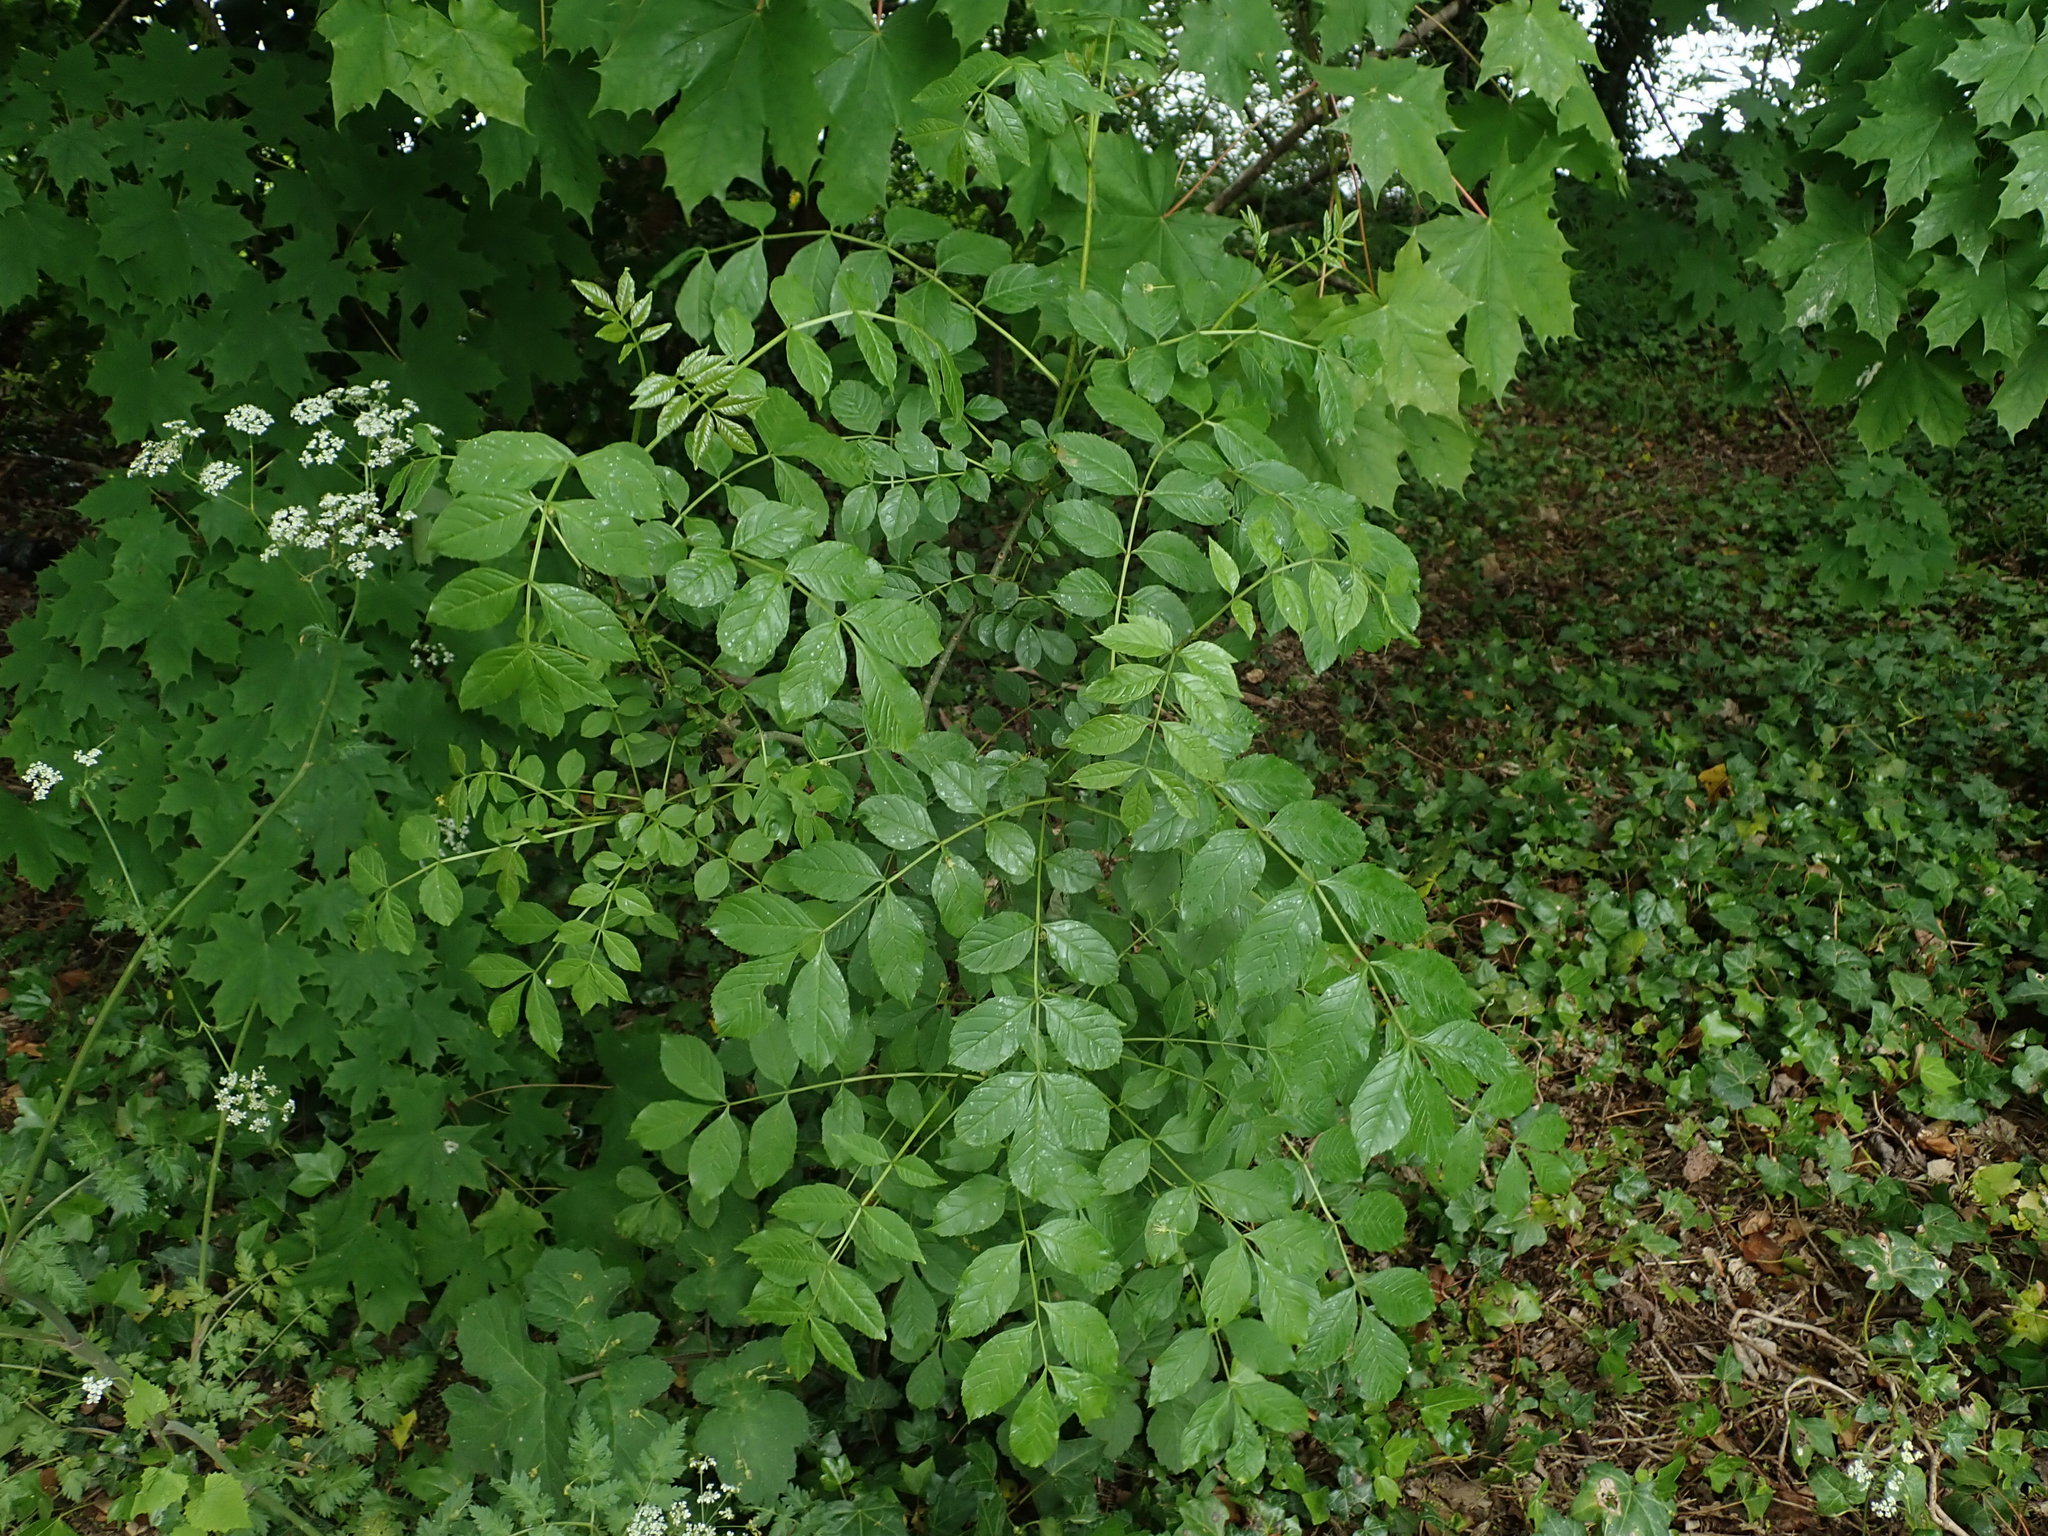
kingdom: Plantae
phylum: Tracheophyta
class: Magnoliopsida
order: Lamiales
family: Oleaceae
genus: Fraxinus
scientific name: Fraxinus excelsior
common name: European ash
